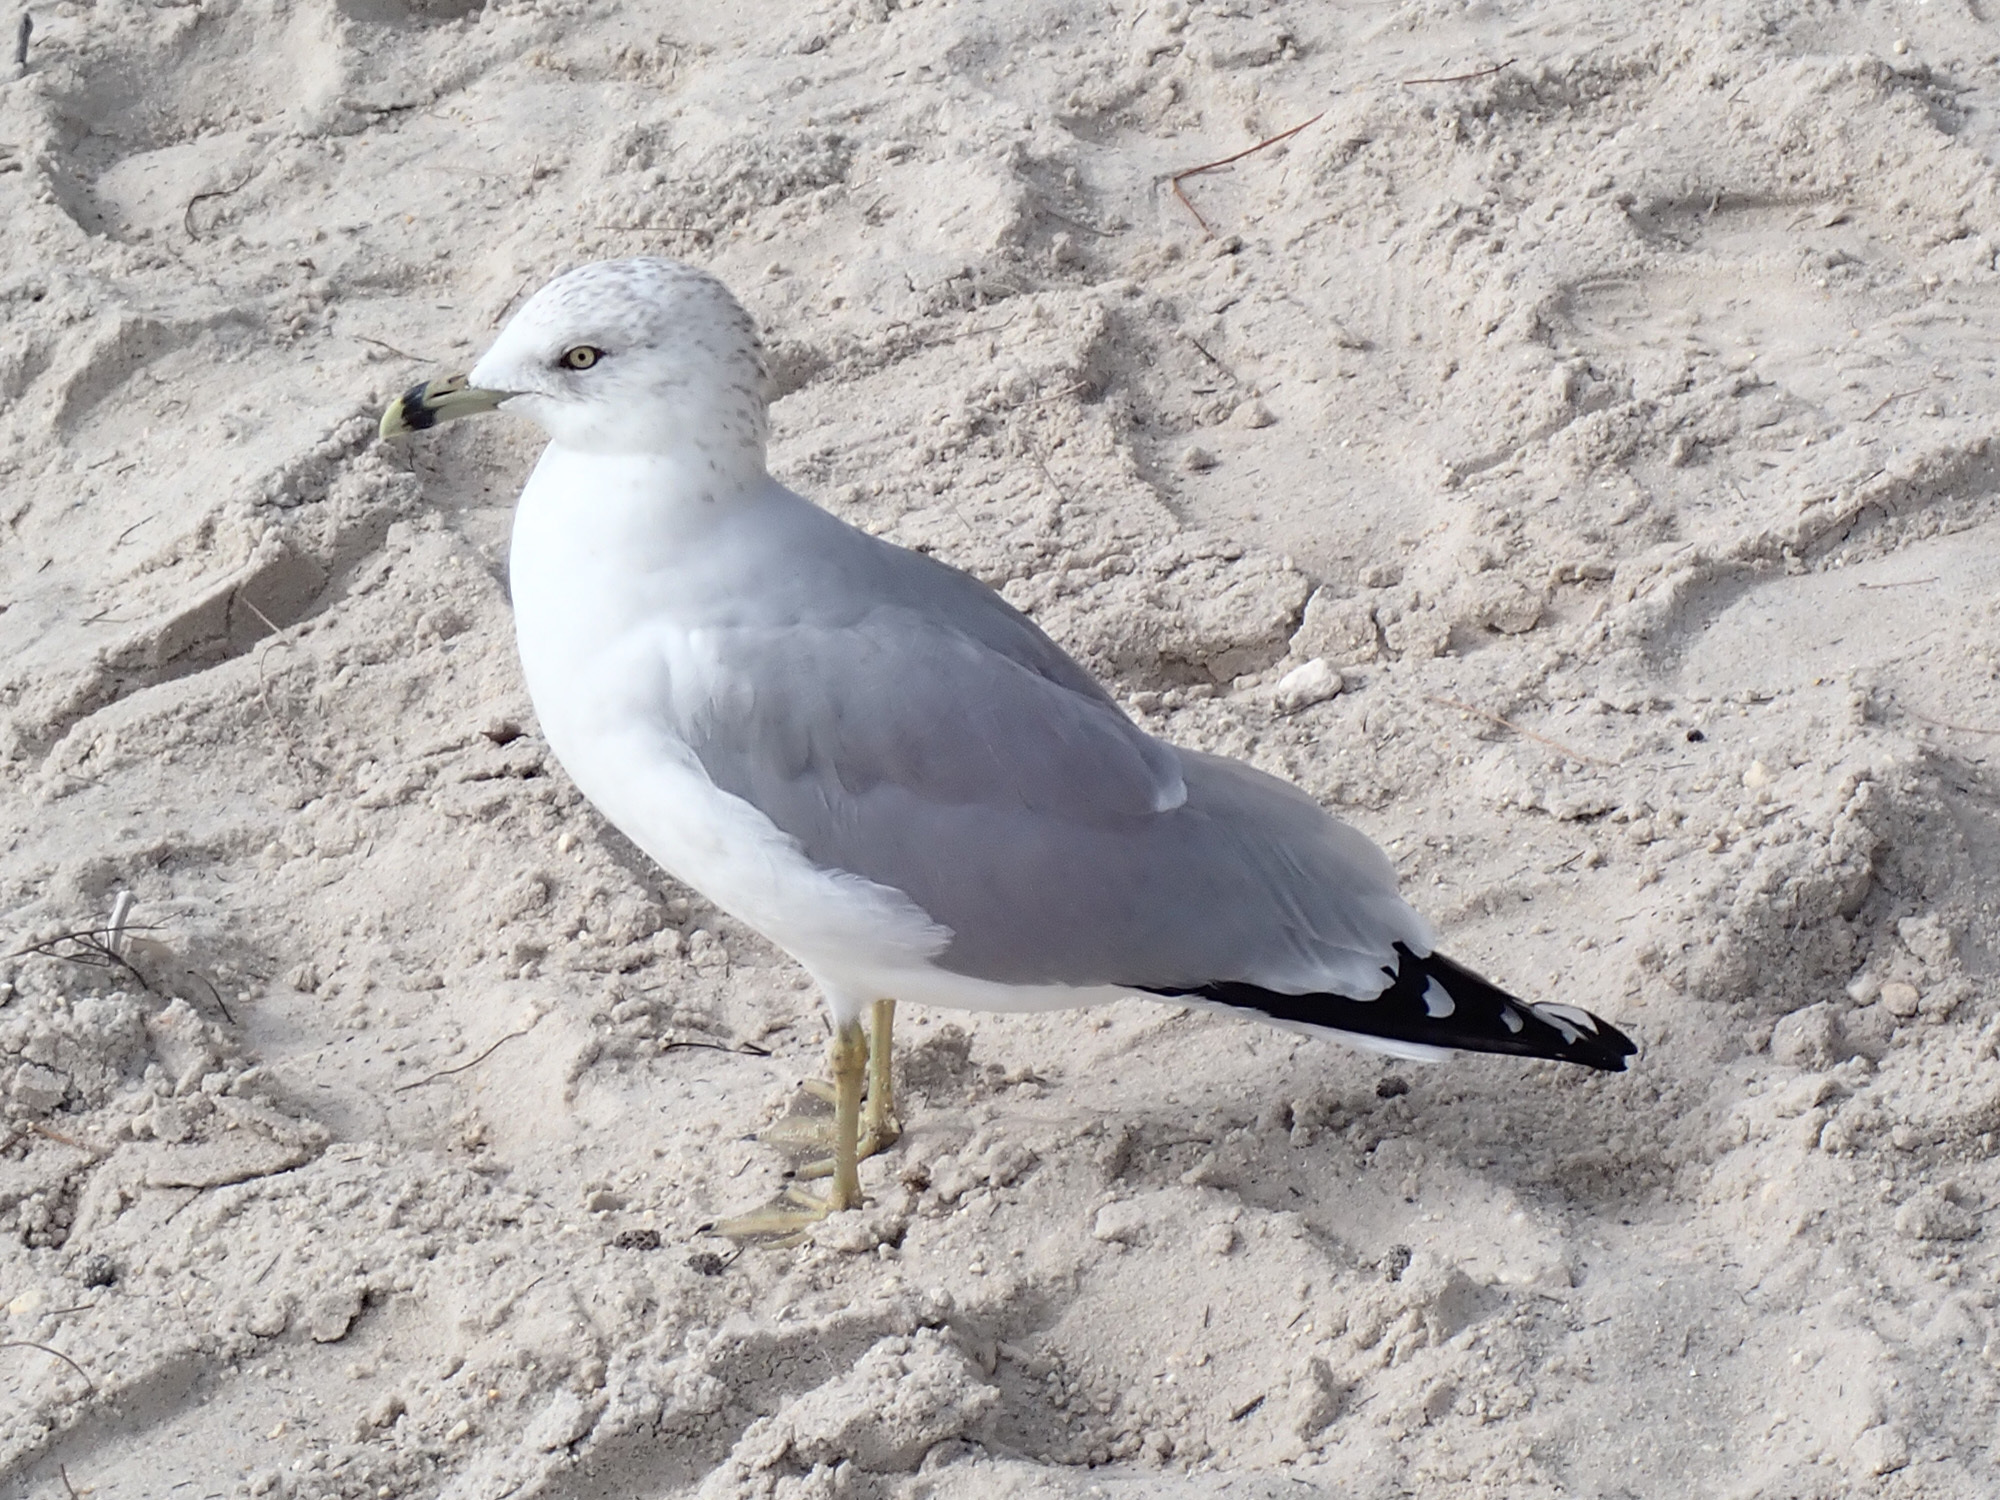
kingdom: Animalia
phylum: Chordata
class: Aves
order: Charadriiformes
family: Laridae
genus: Larus
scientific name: Larus delawarensis
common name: Ring-billed gull
